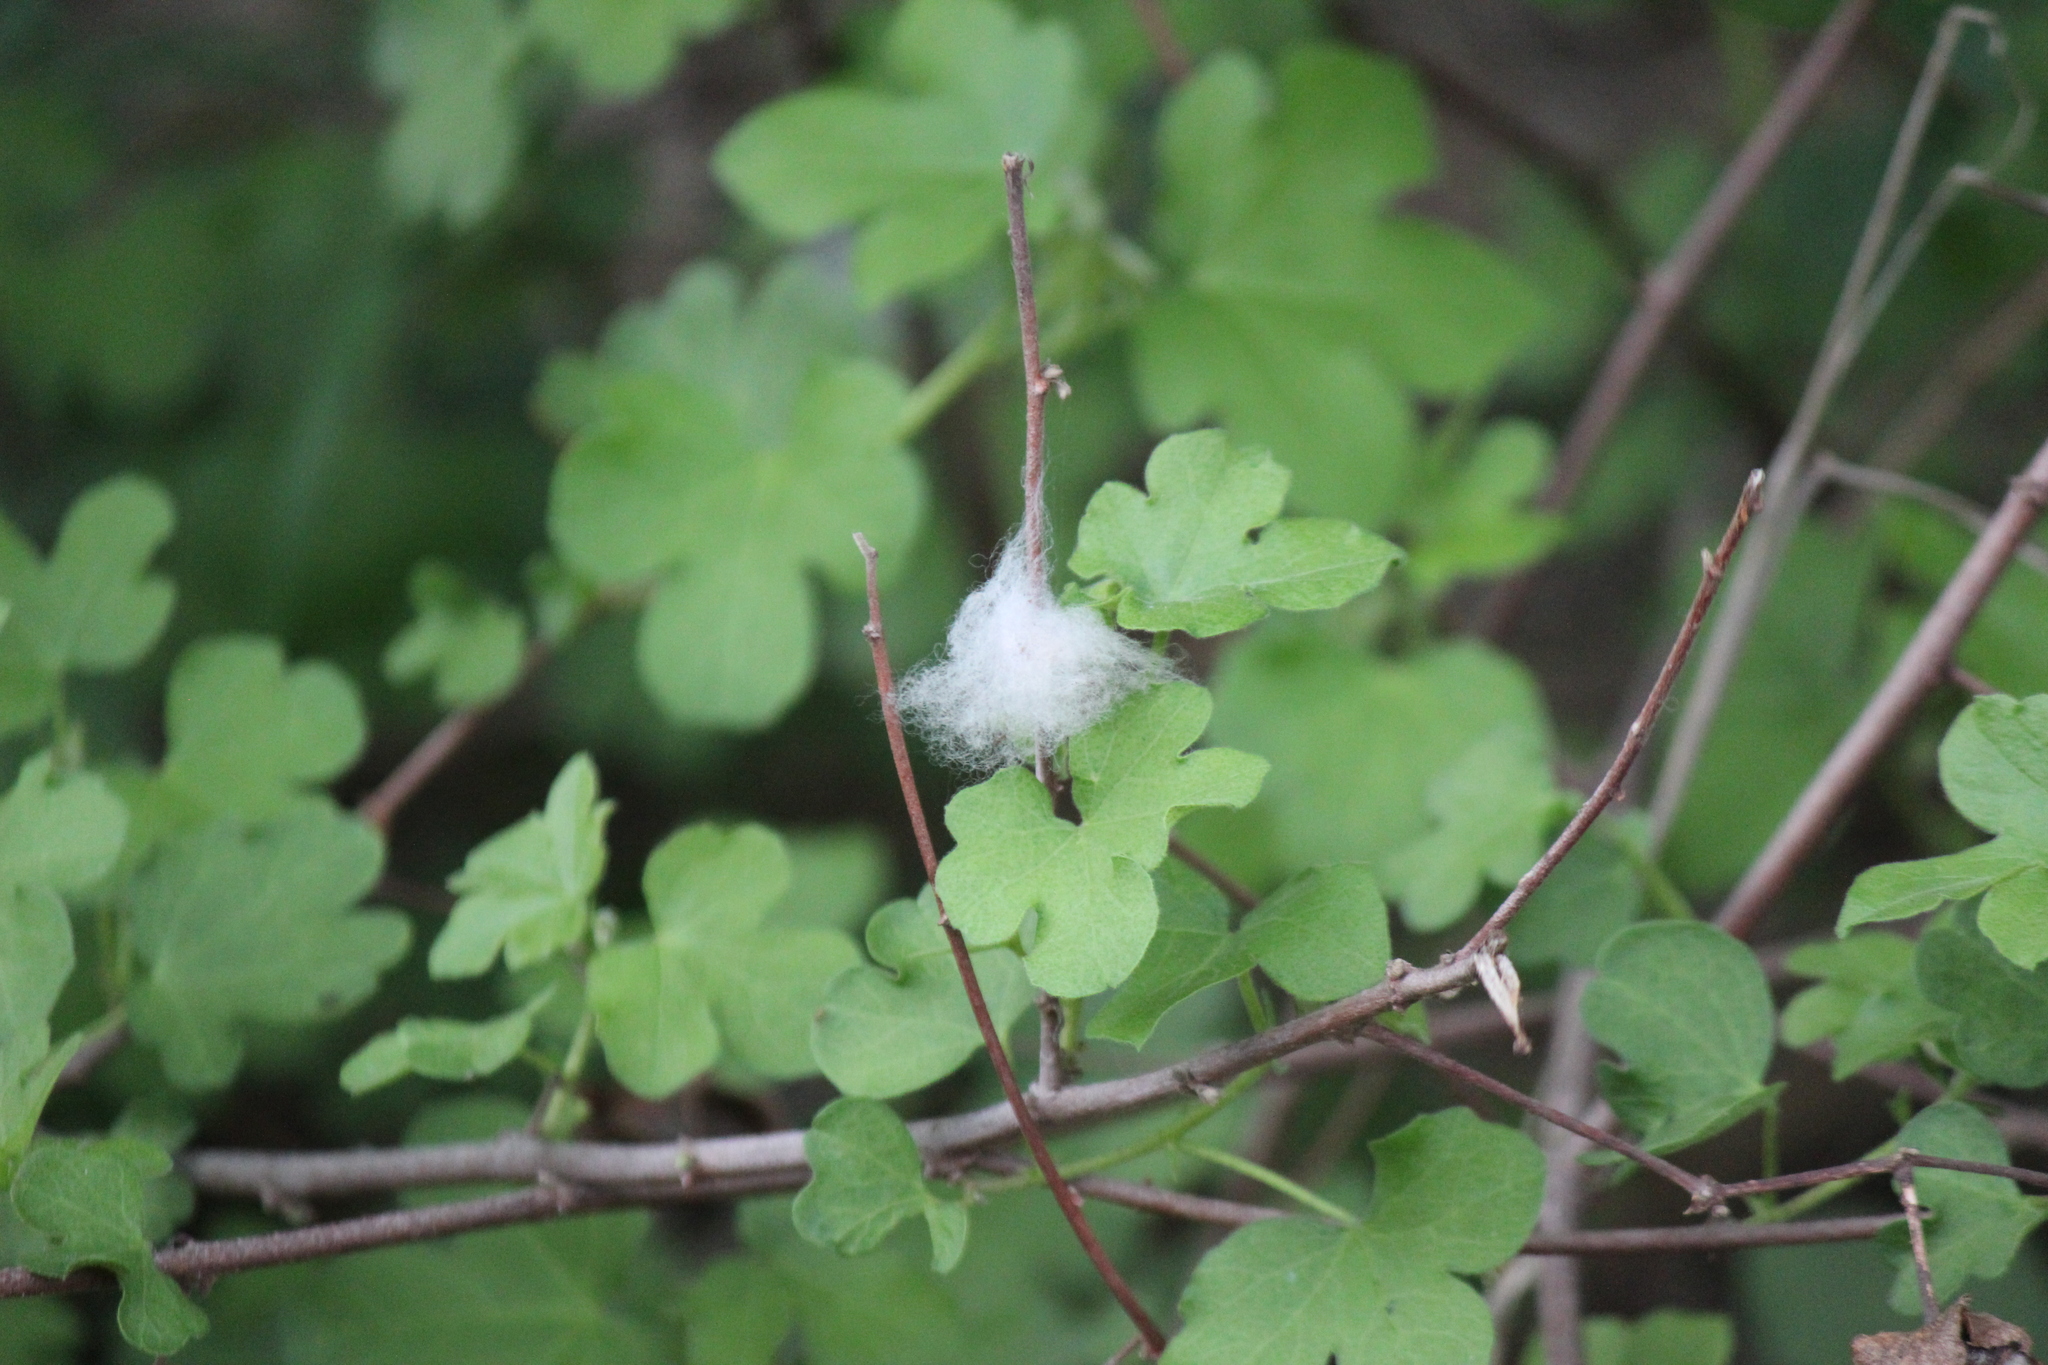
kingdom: Plantae
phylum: Tracheophyta
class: Magnoliopsida
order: Malvales
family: Malvaceae
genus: Gossypium
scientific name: Gossypium herbaceum
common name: Levant cotton
